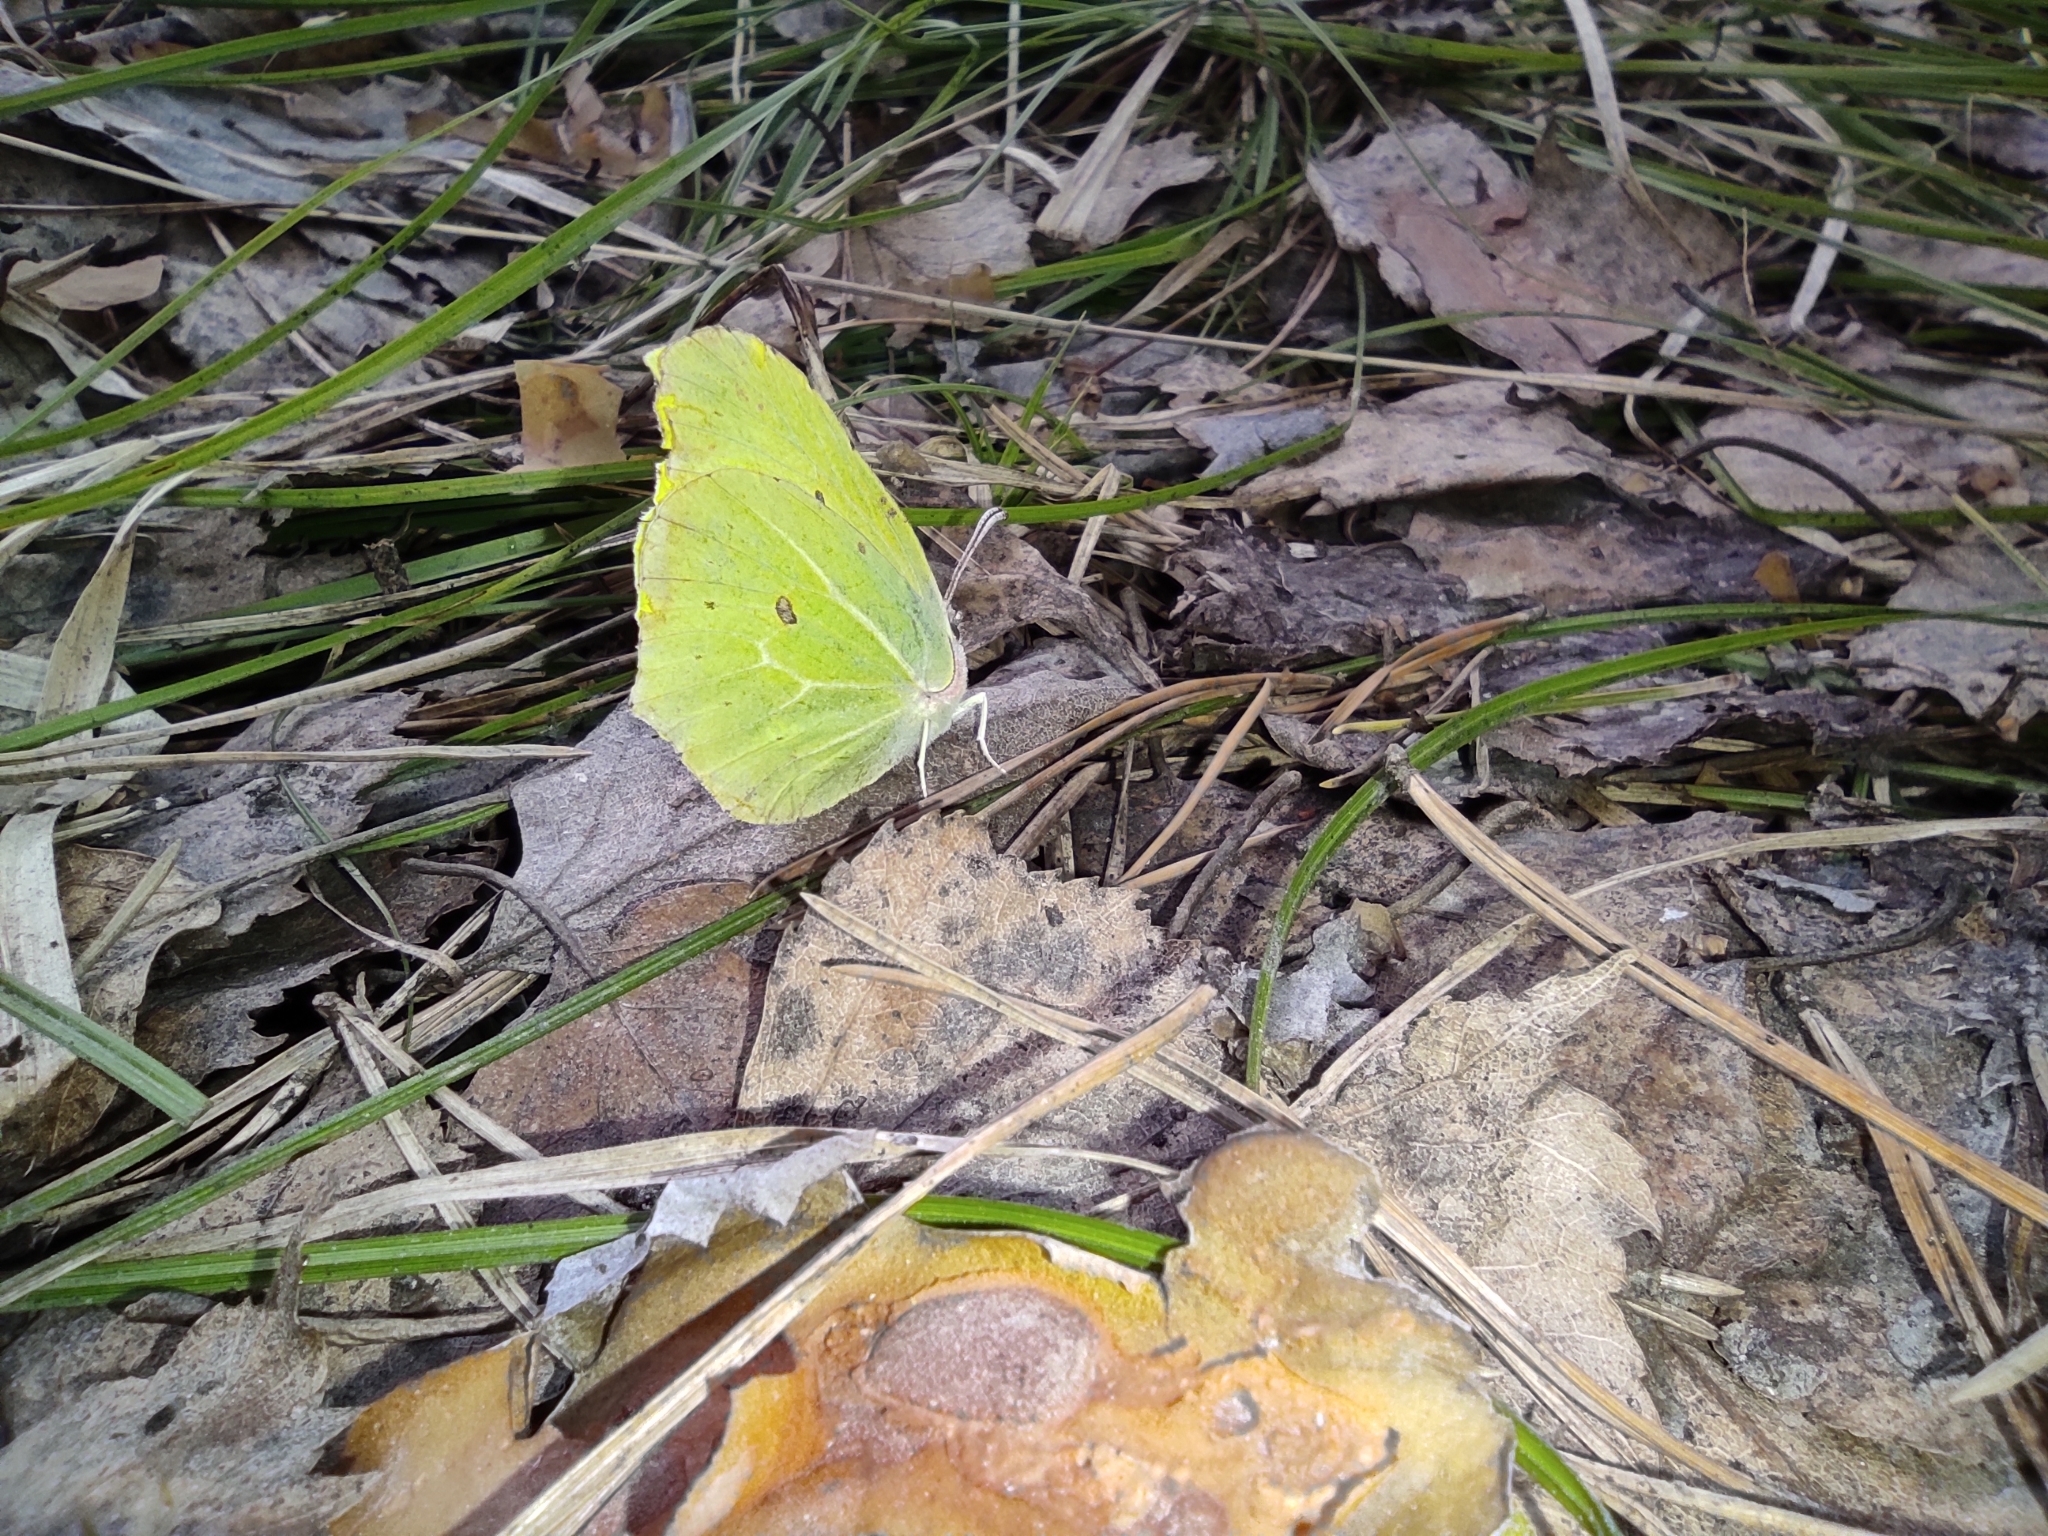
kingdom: Animalia
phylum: Arthropoda
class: Insecta
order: Lepidoptera
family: Pieridae
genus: Gonepteryx
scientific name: Gonepteryx rhamni
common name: Brimstone
